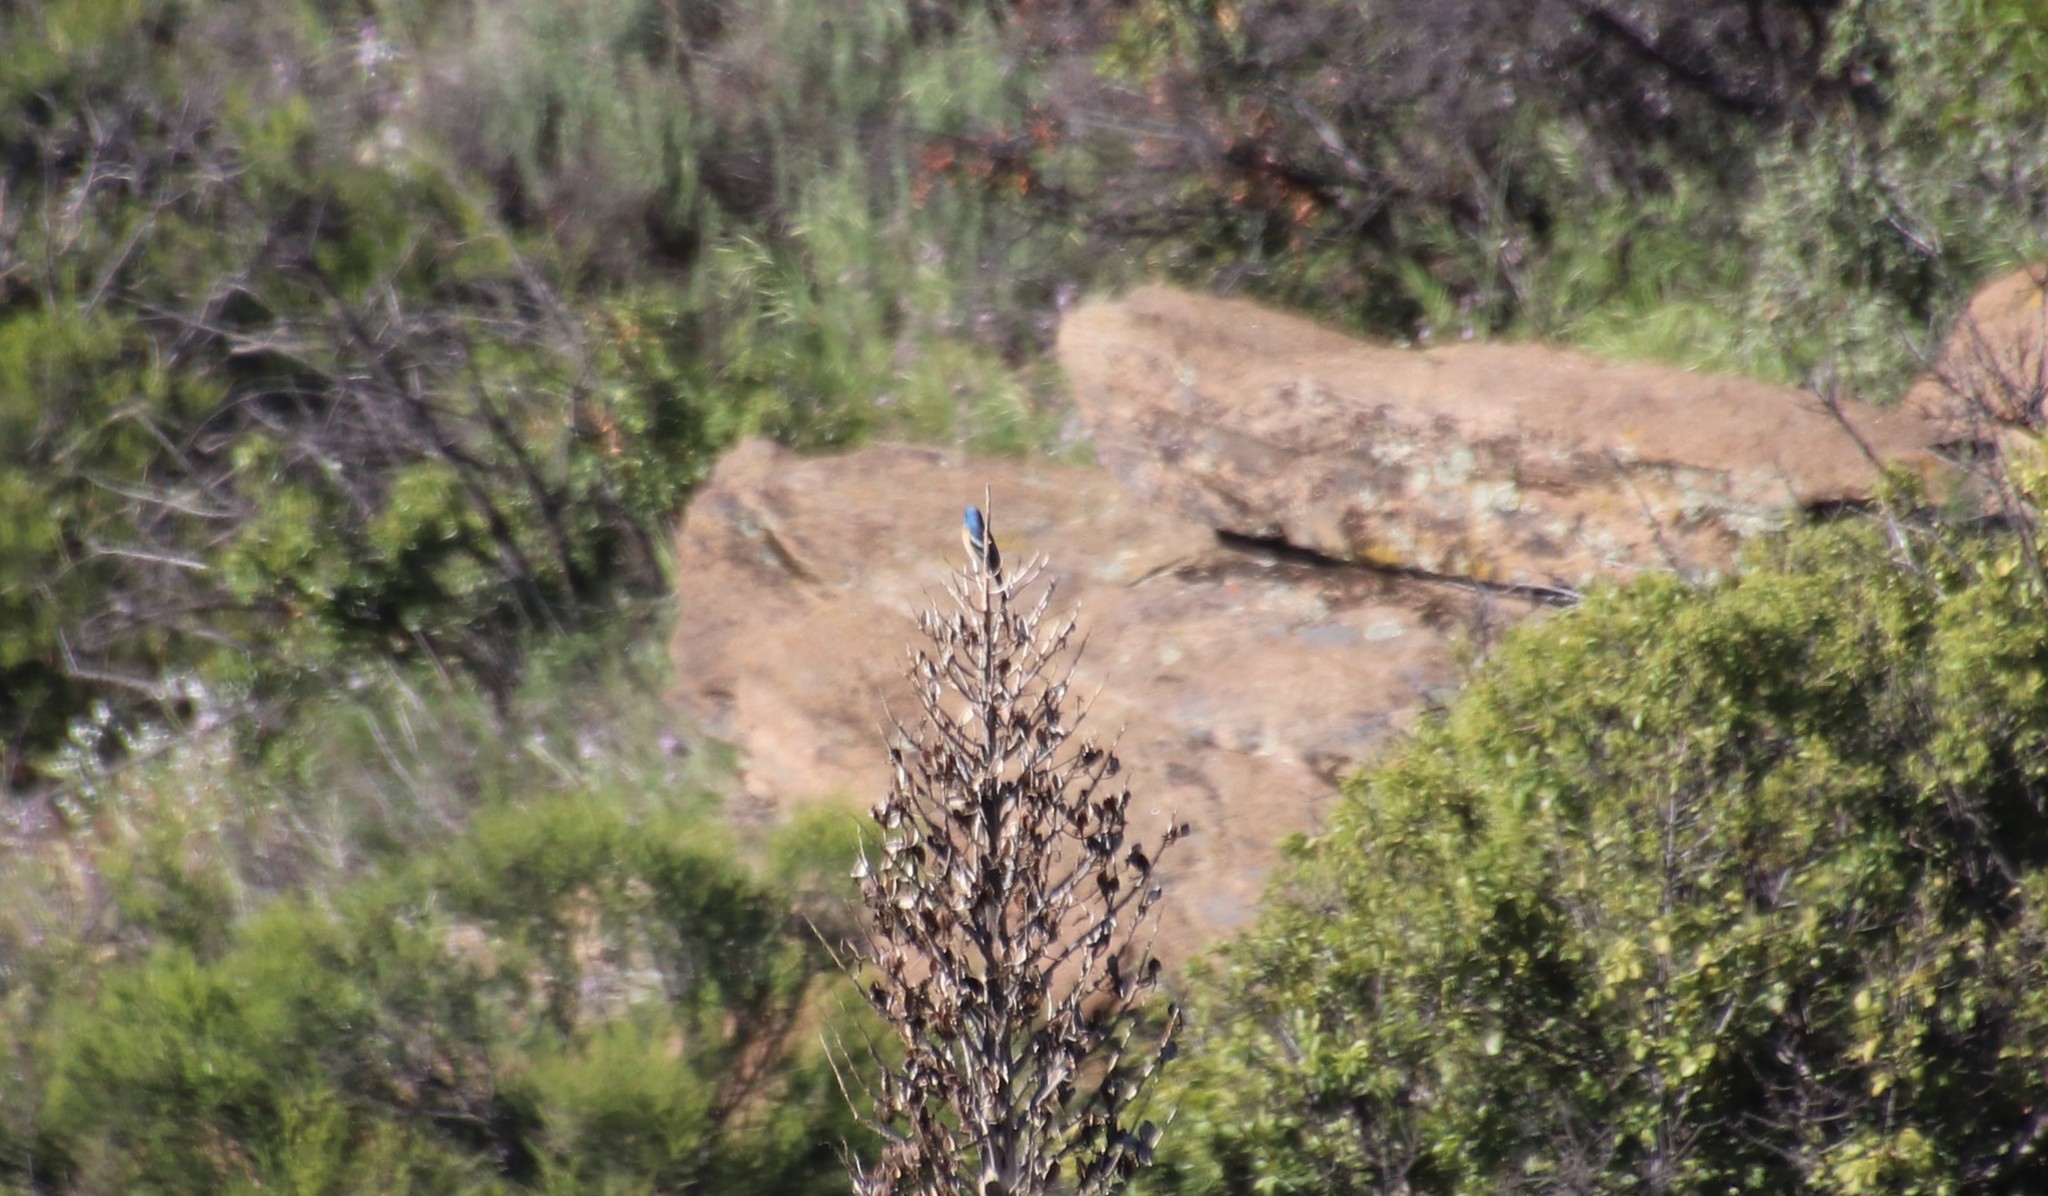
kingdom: Animalia
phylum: Chordata
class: Aves
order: Passeriformes
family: Cardinalidae
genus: Passerina
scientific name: Passerina amoena
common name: Lazuli bunting
